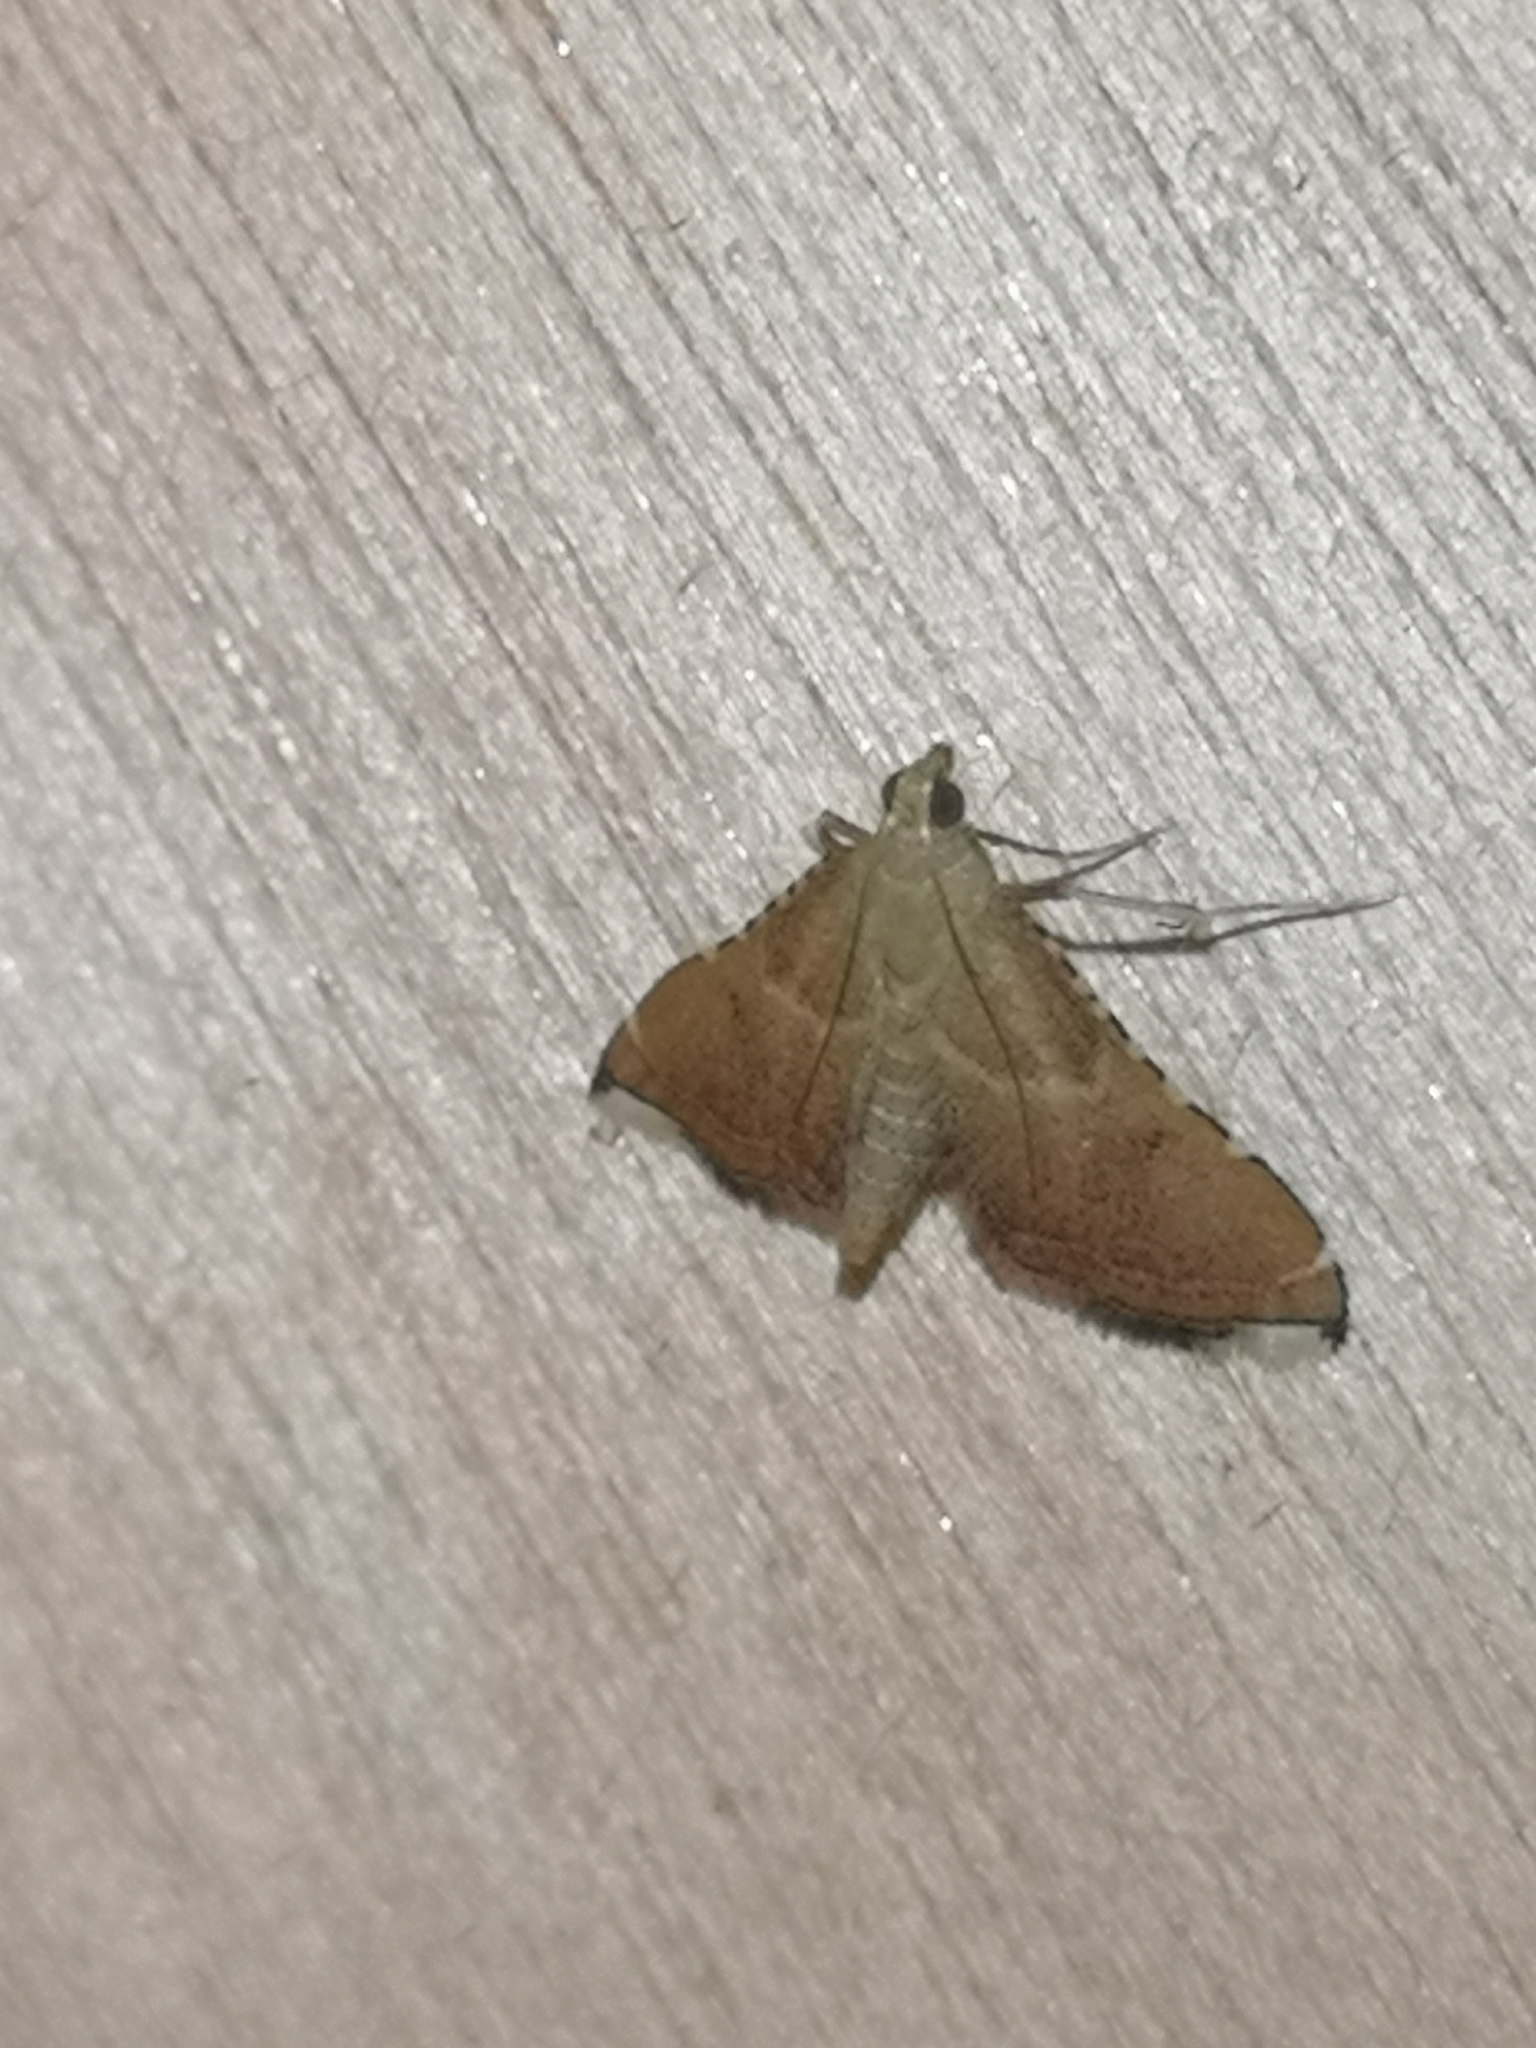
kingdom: Animalia
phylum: Arthropoda
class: Insecta
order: Lepidoptera
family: Pyralidae
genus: Endotricha
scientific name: Endotricha flammealis
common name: Rosy tabby
